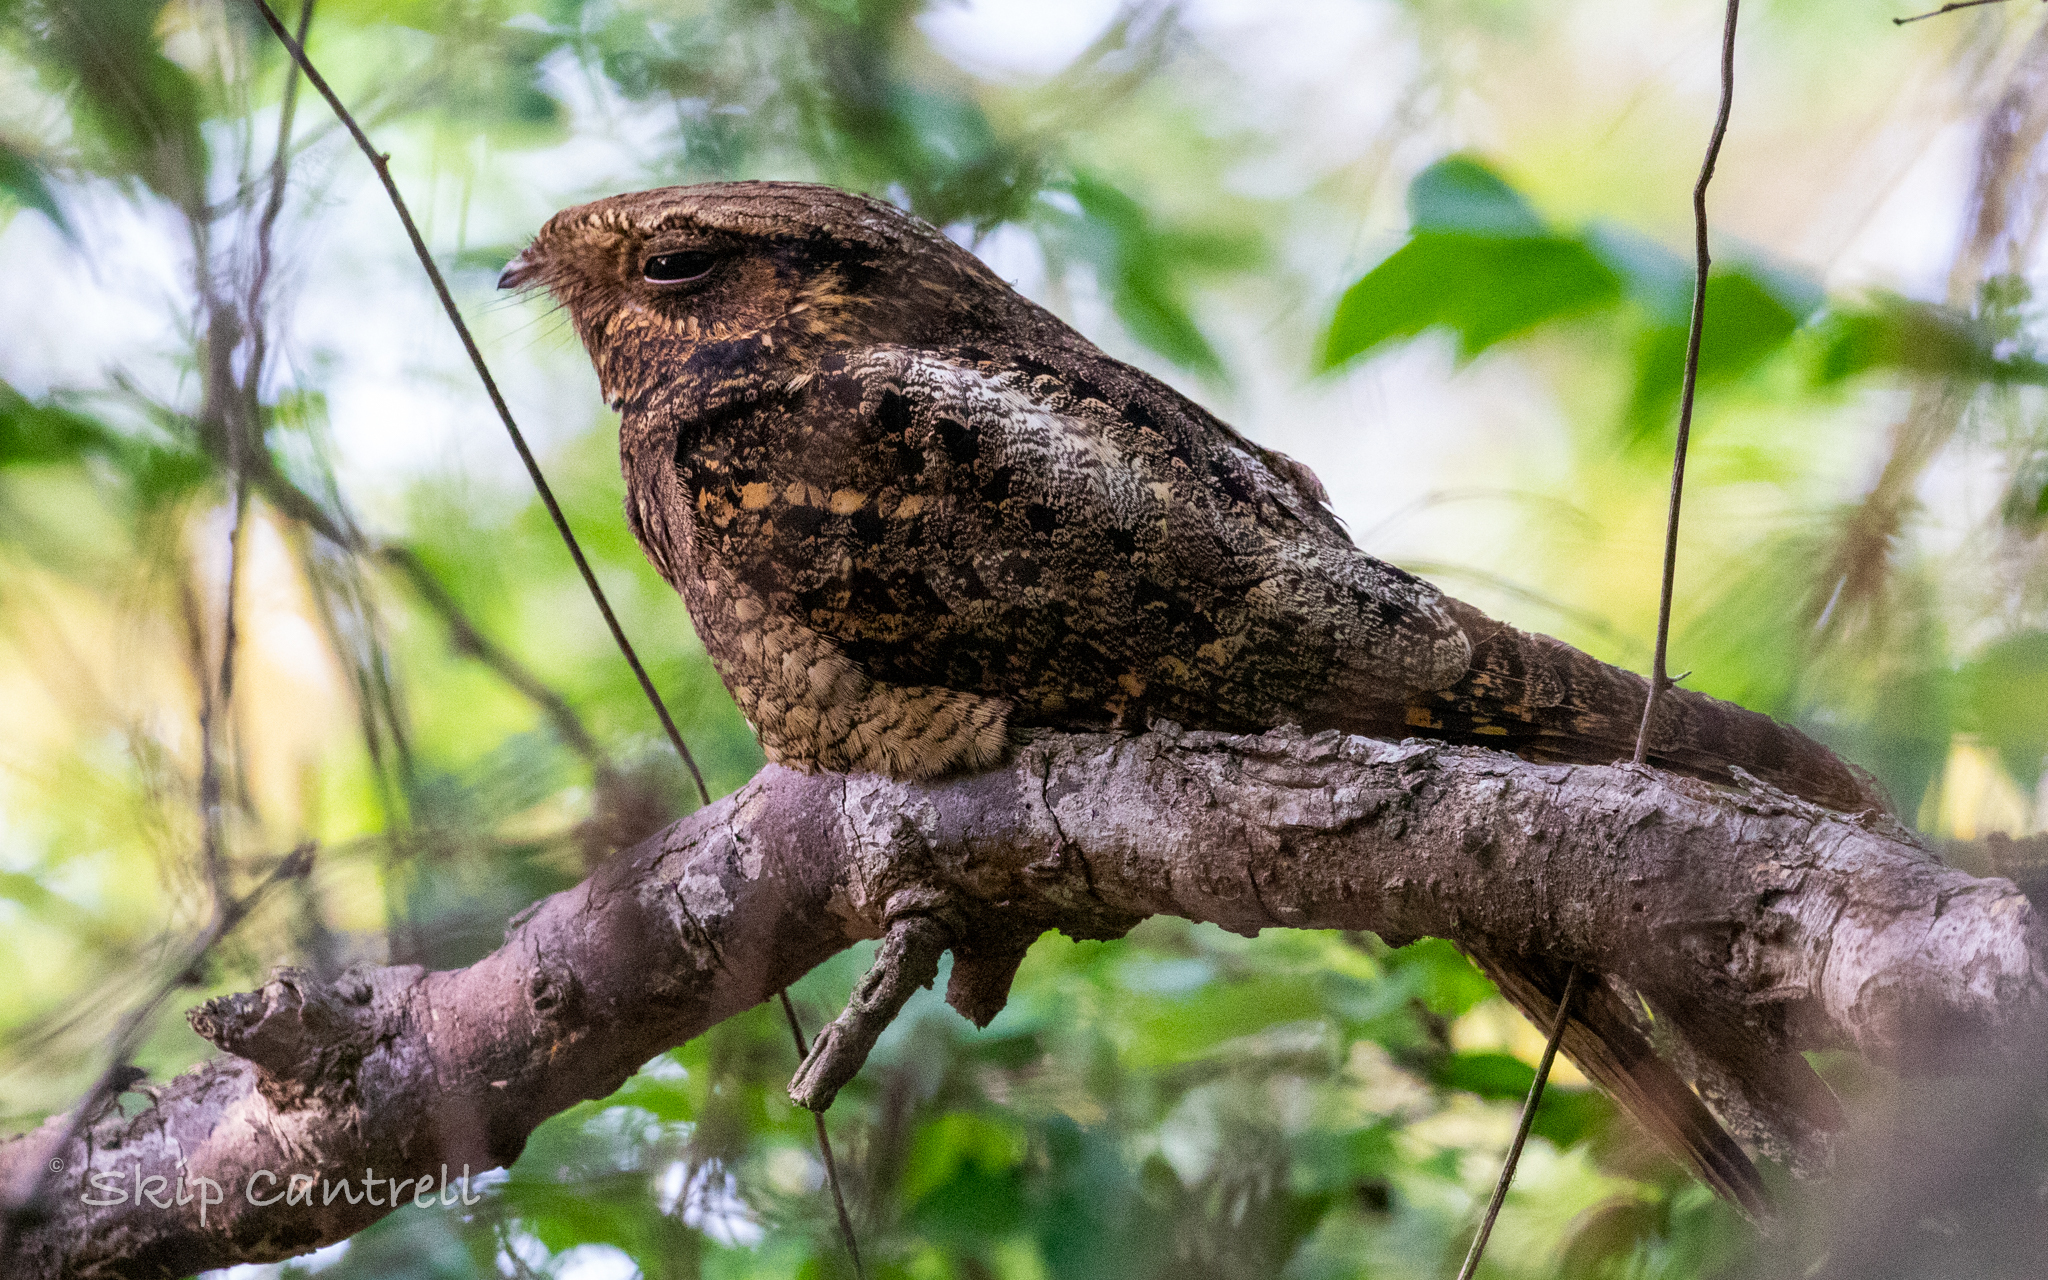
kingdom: Animalia
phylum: Chordata
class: Aves
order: Caprimulgiformes
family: Caprimulgidae
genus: Antrostomus
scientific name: Antrostomus carolinensis
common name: Chuck-will's-widow
